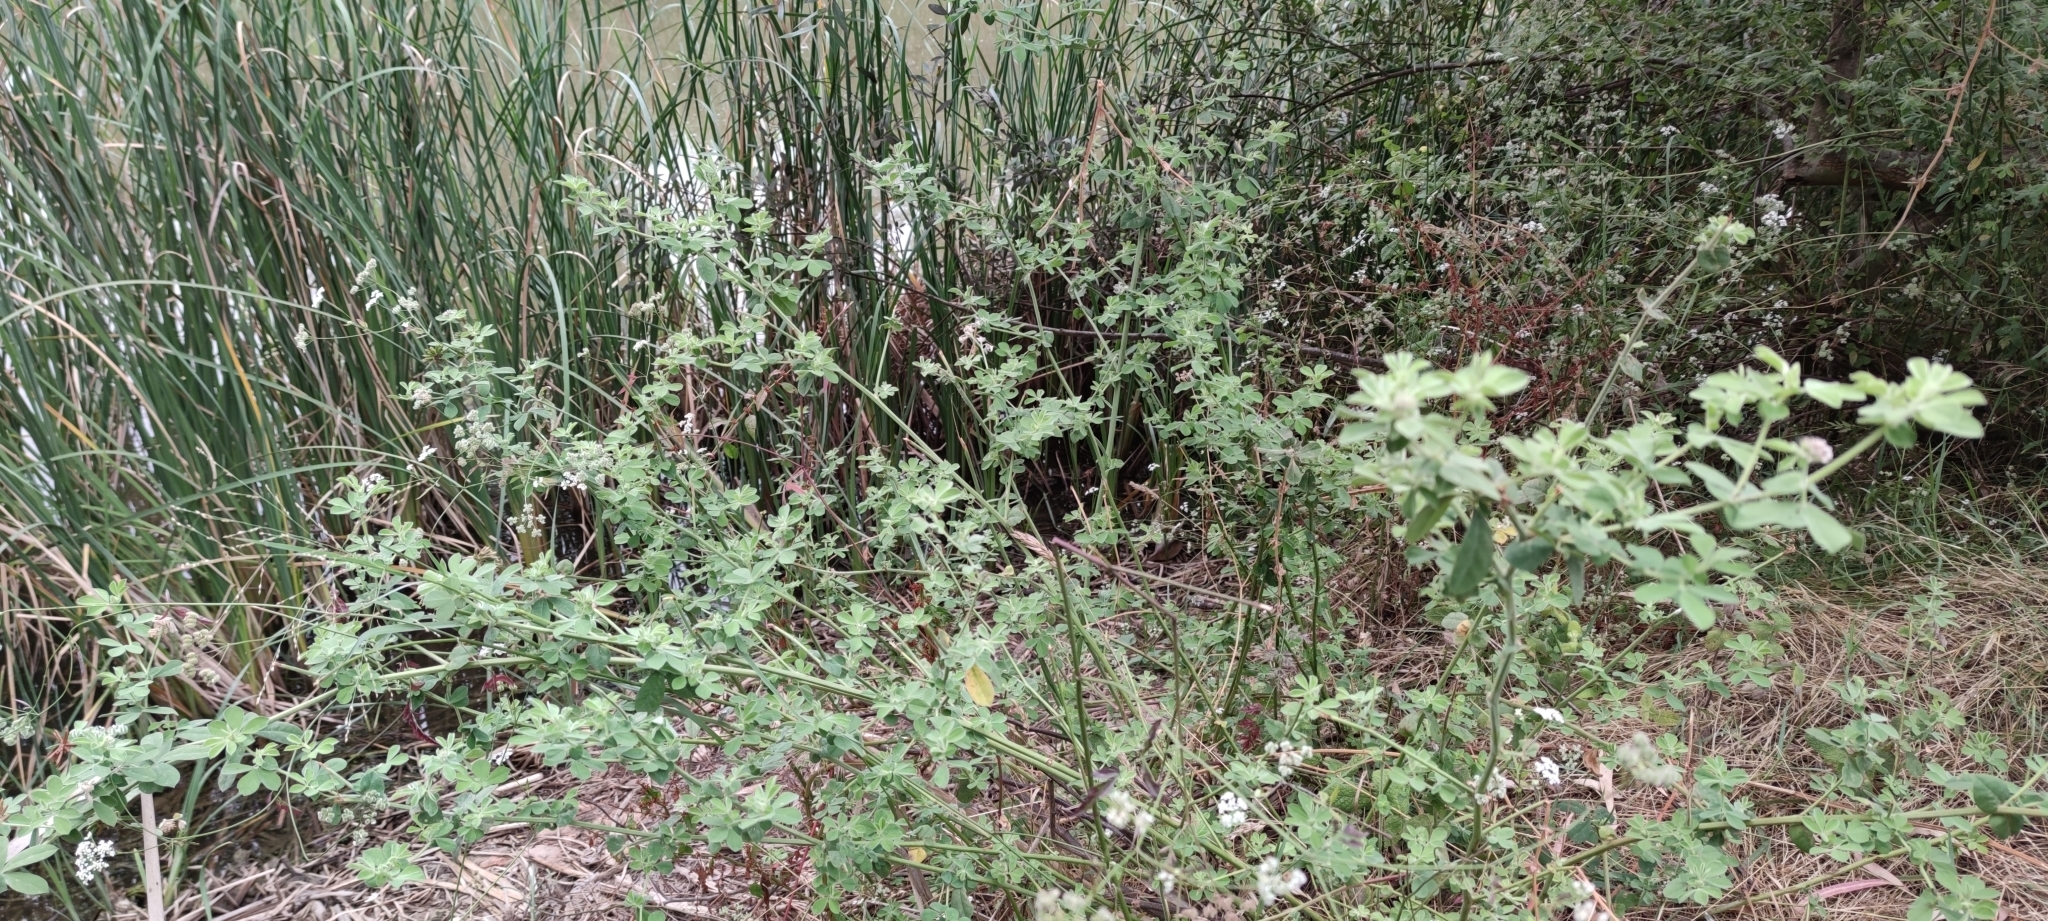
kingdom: Plantae
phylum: Tracheophyta
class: Magnoliopsida
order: Fabales
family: Fabaceae
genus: Lotus
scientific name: Lotus rectus
